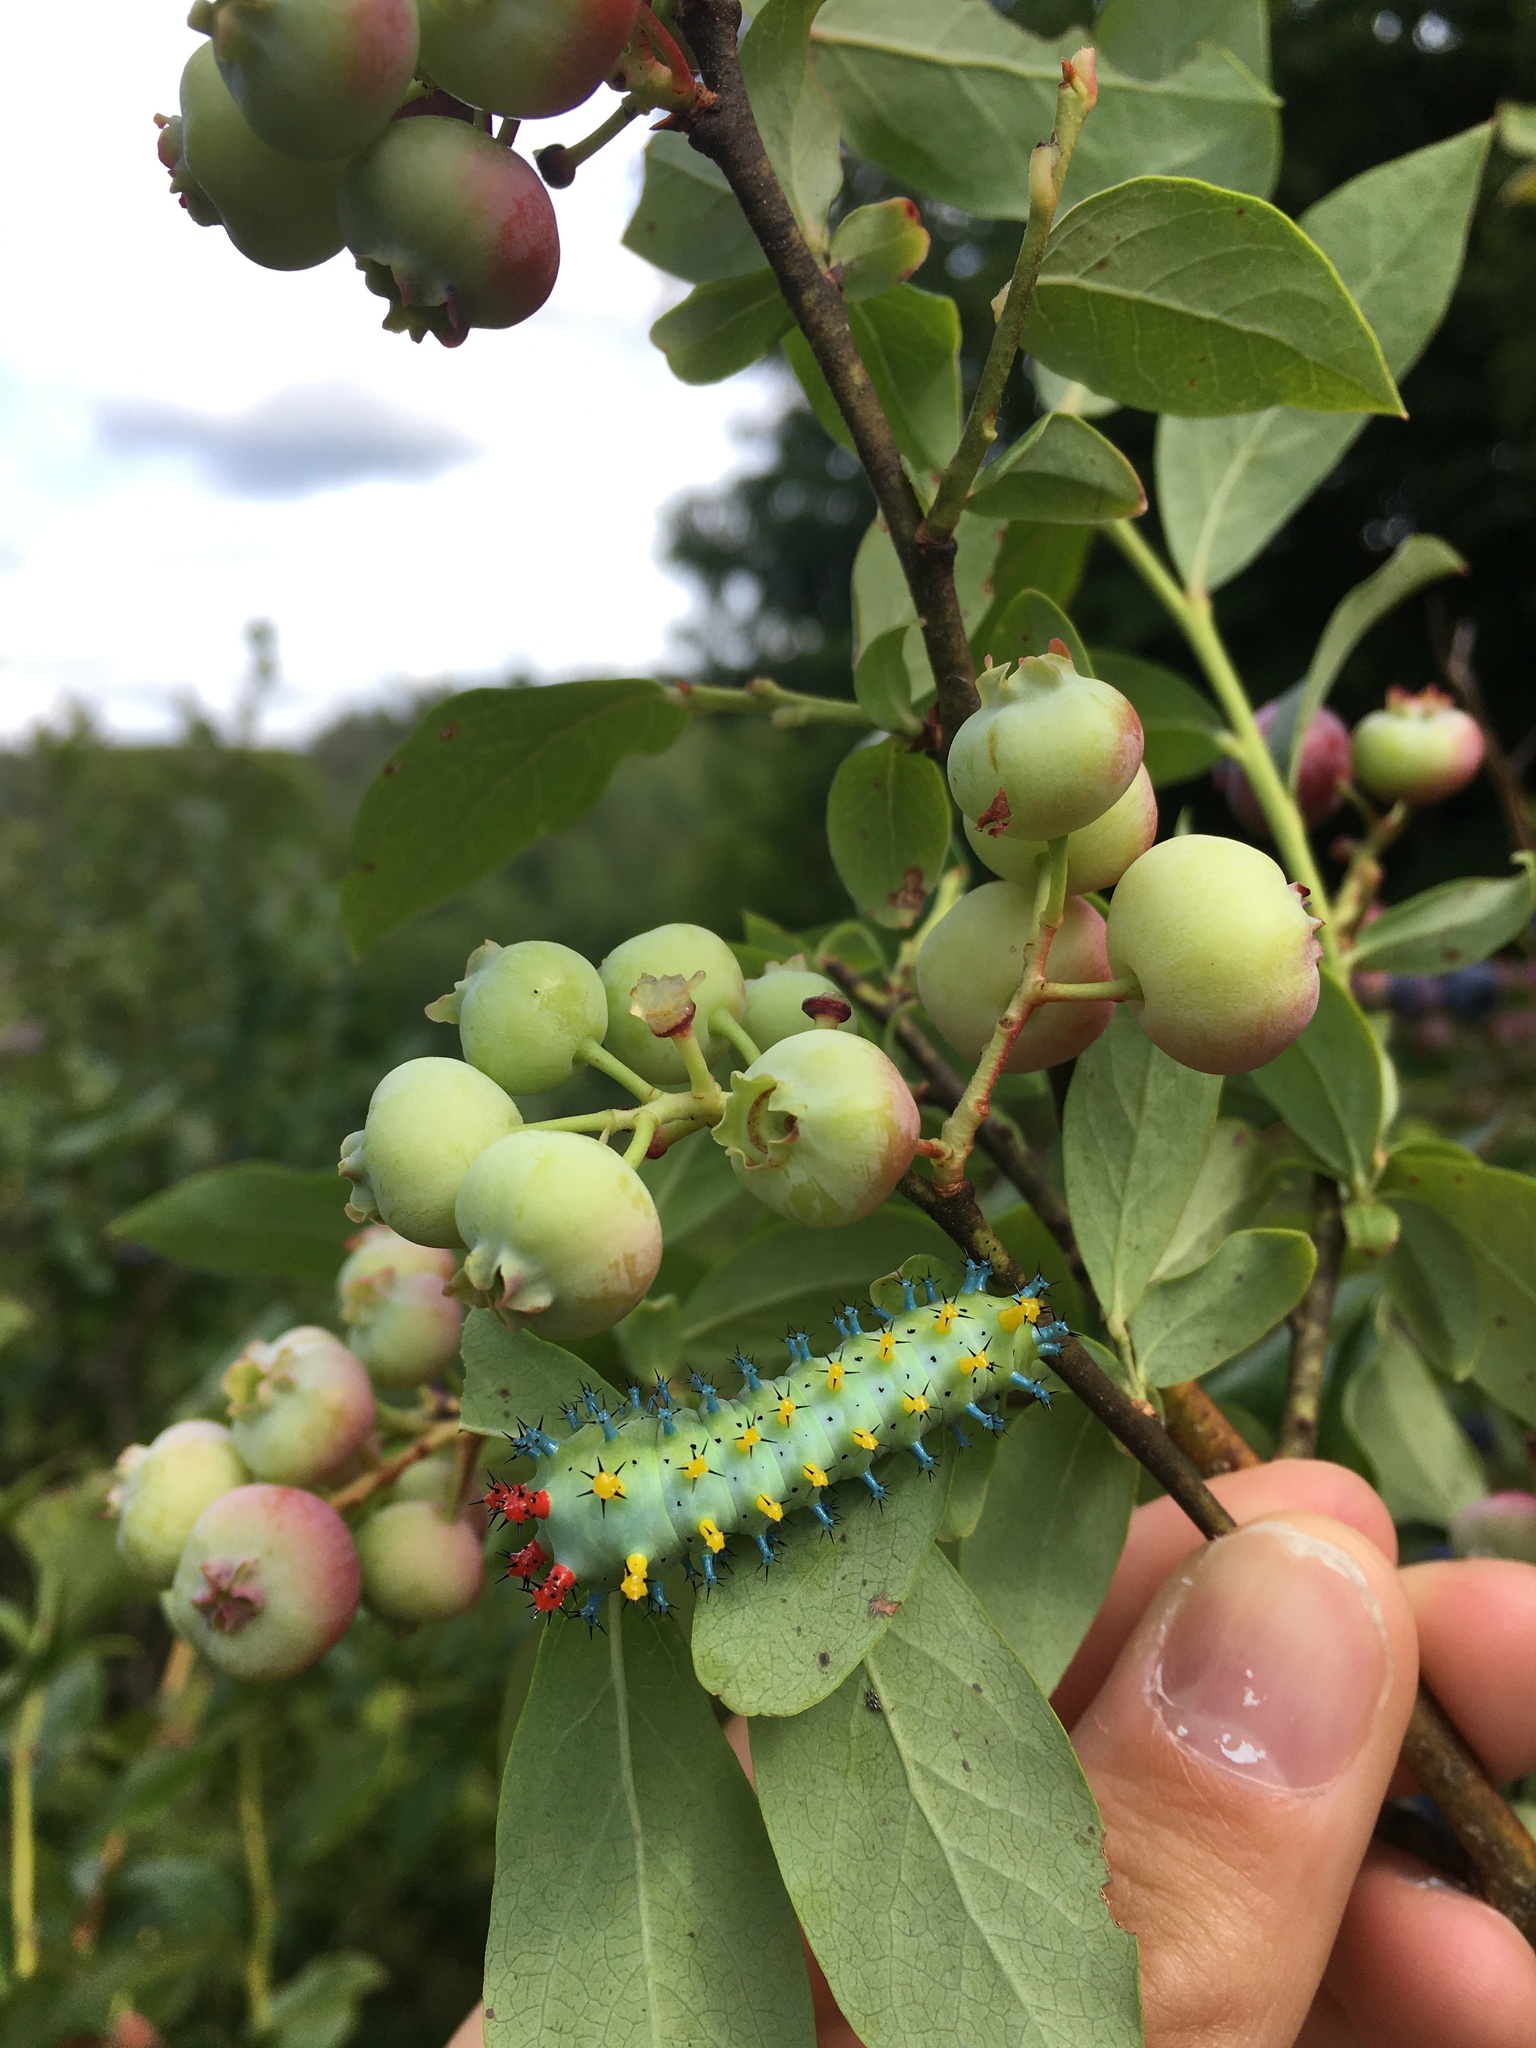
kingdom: Animalia
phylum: Arthropoda
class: Insecta
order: Lepidoptera
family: Saturniidae
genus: Hyalophora
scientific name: Hyalophora cecropia
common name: Cecropia silkmoth
